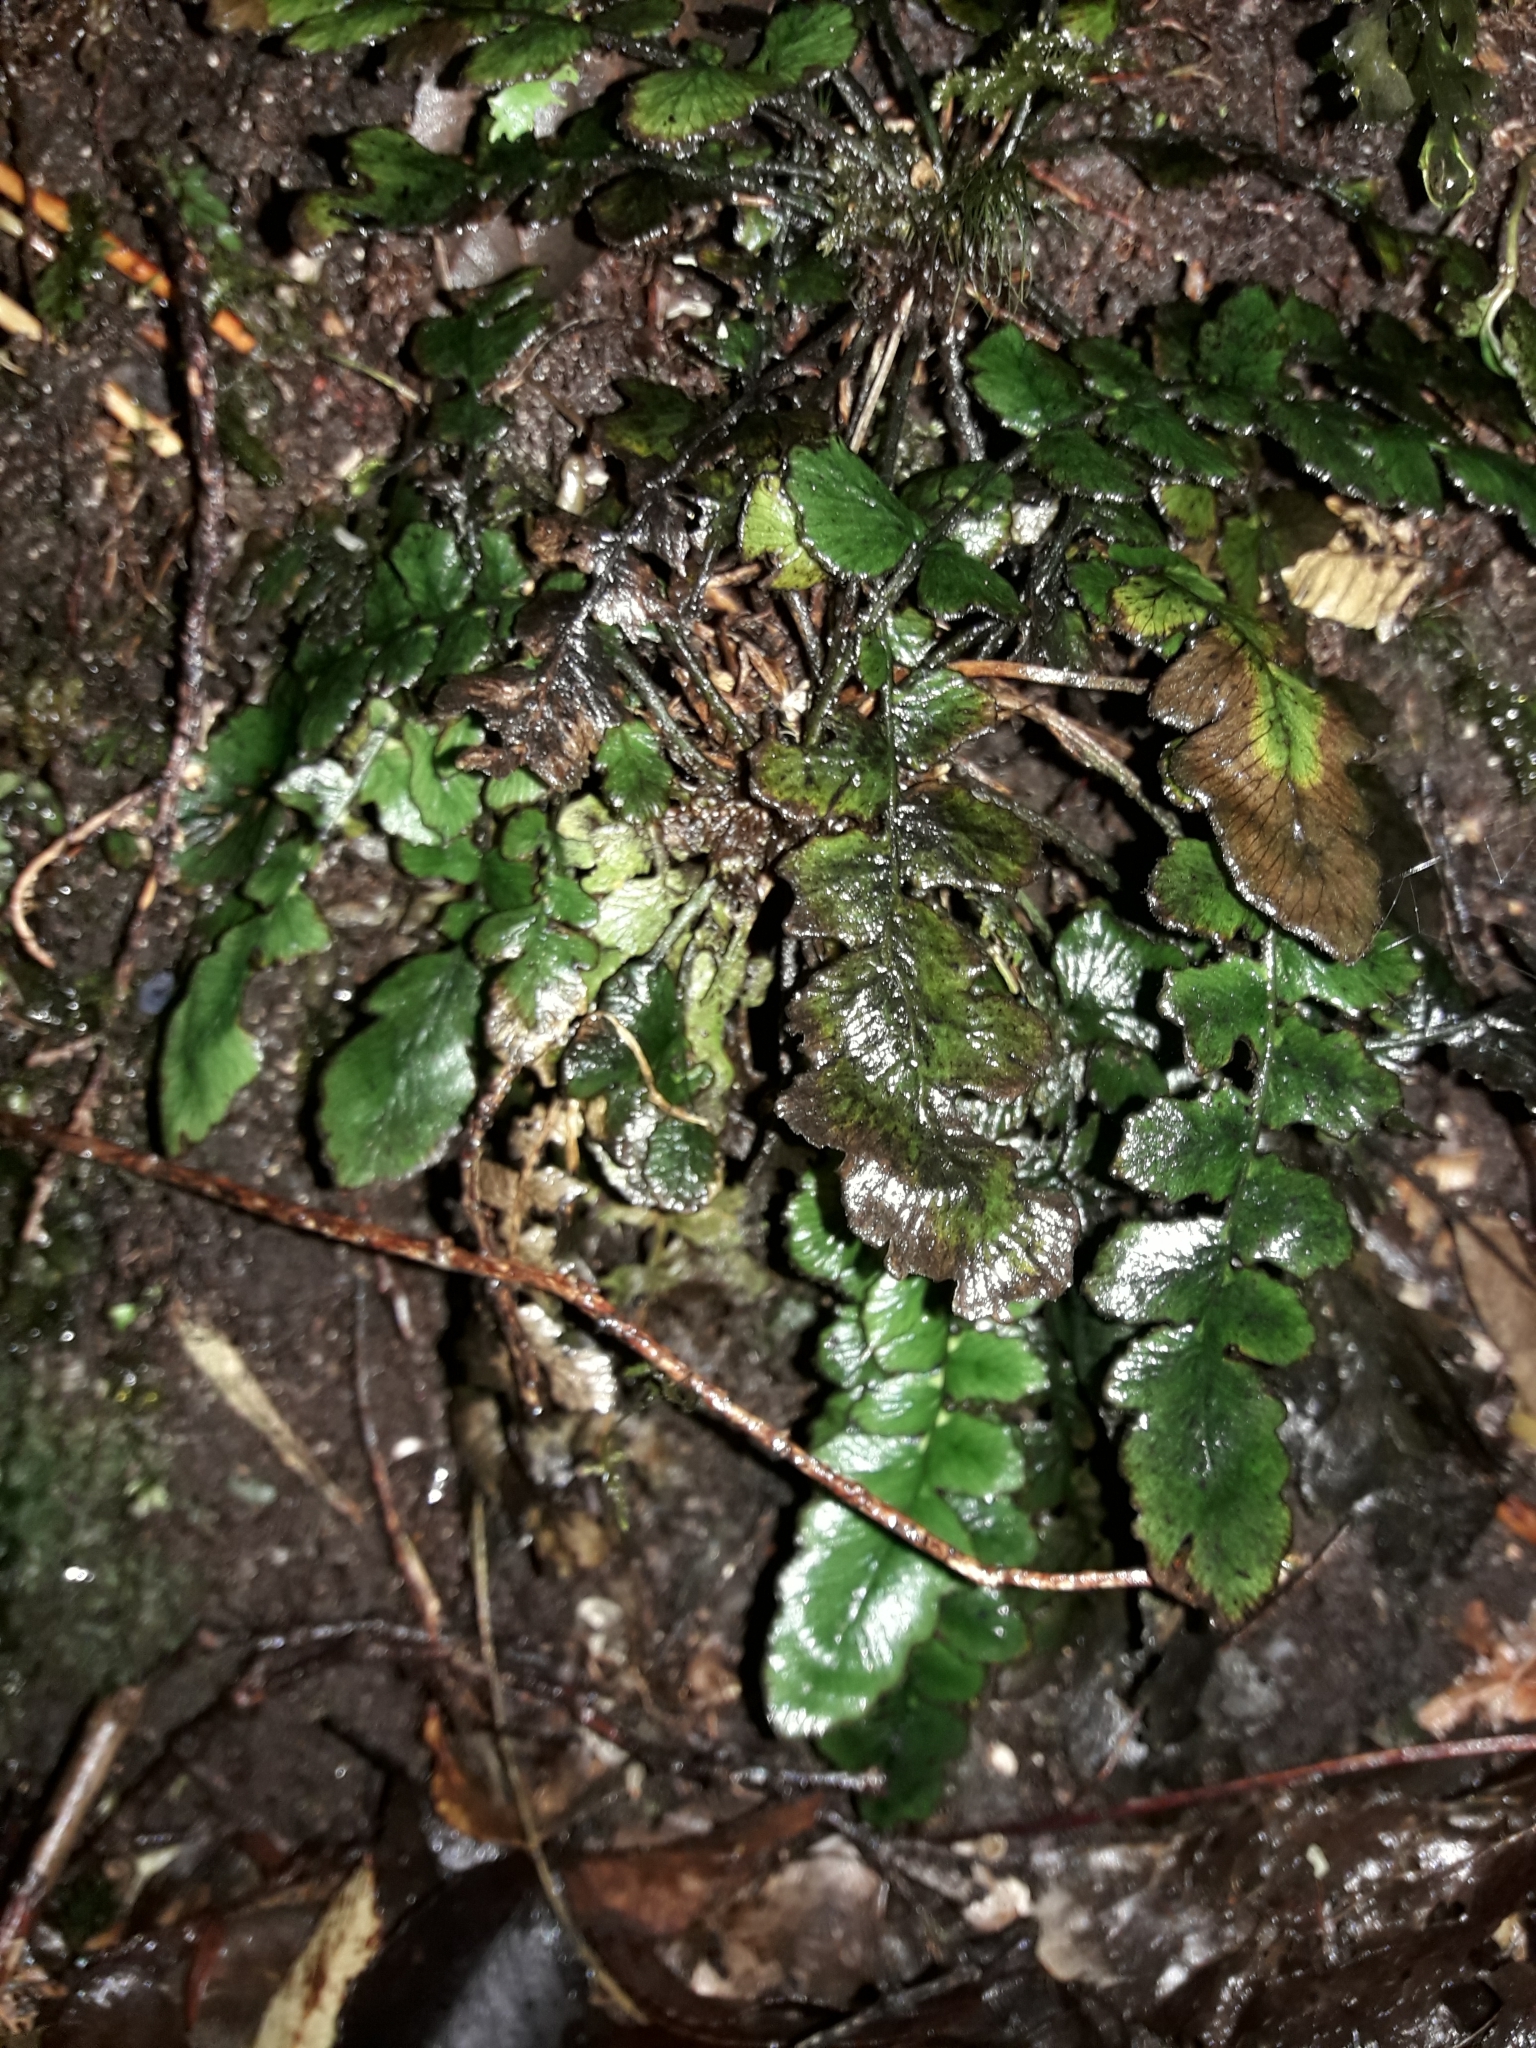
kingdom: Plantae
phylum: Tracheophyta
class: Polypodiopsida
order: Polypodiales
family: Blechnaceae
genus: Cranfillia
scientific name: Cranfillia nigra
